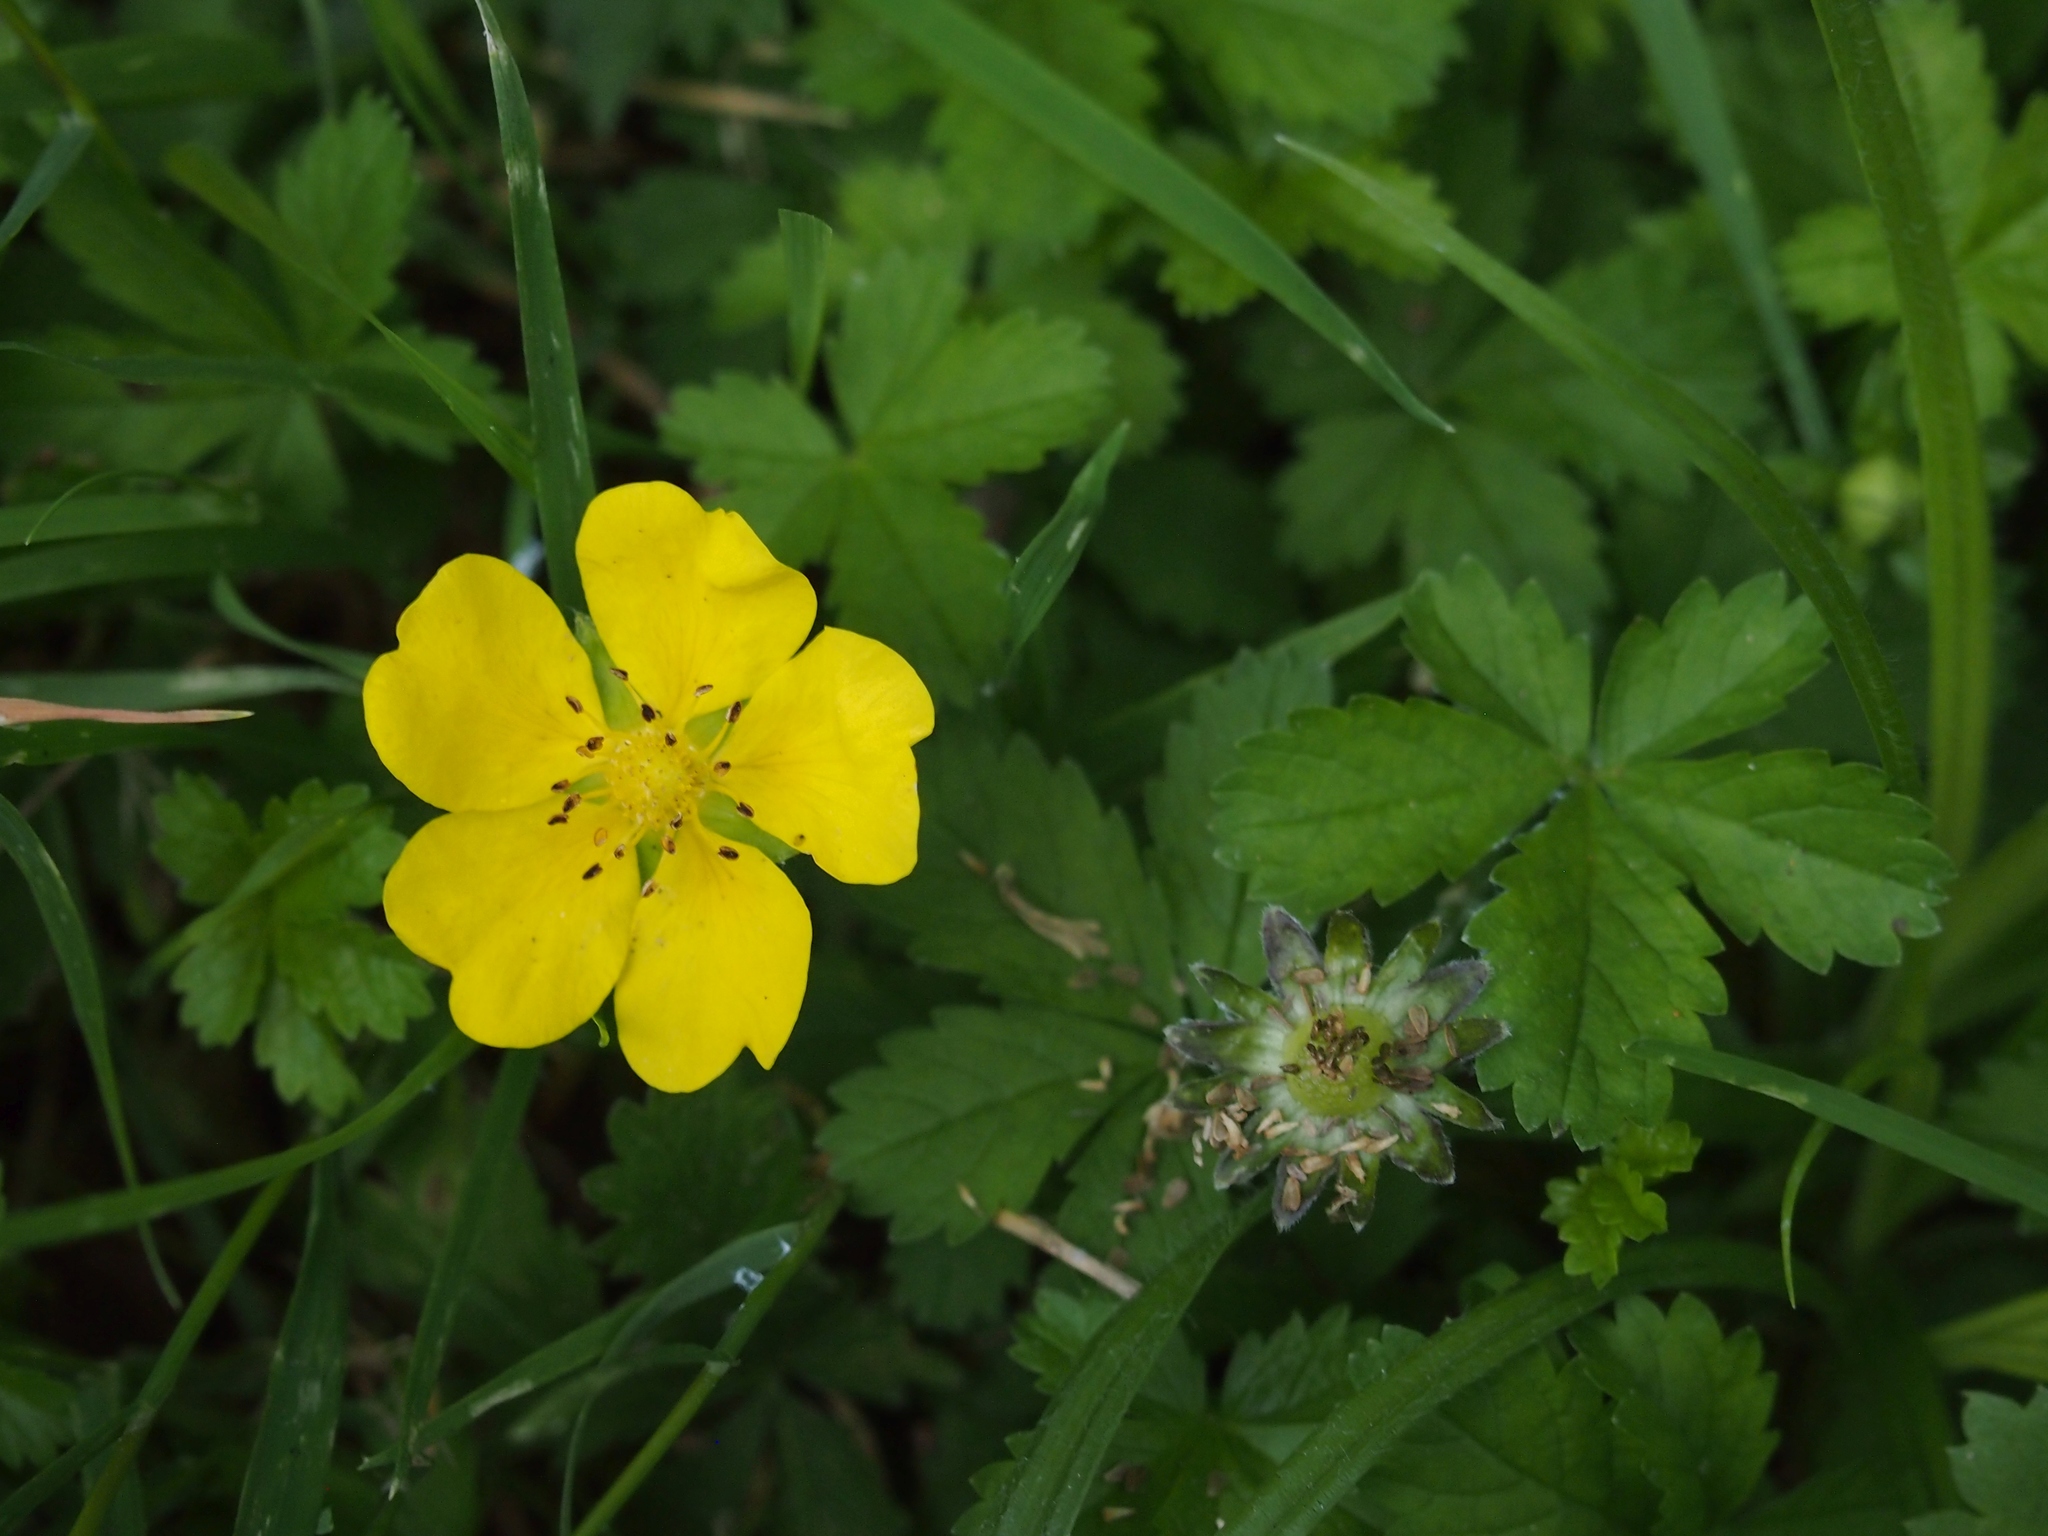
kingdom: Plantae
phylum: Tracheophyta
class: Magnoliopsida
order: Rosales
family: Rosaceae
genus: Potentilla
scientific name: Potentilla reptans
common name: Creeping cinquefoil
